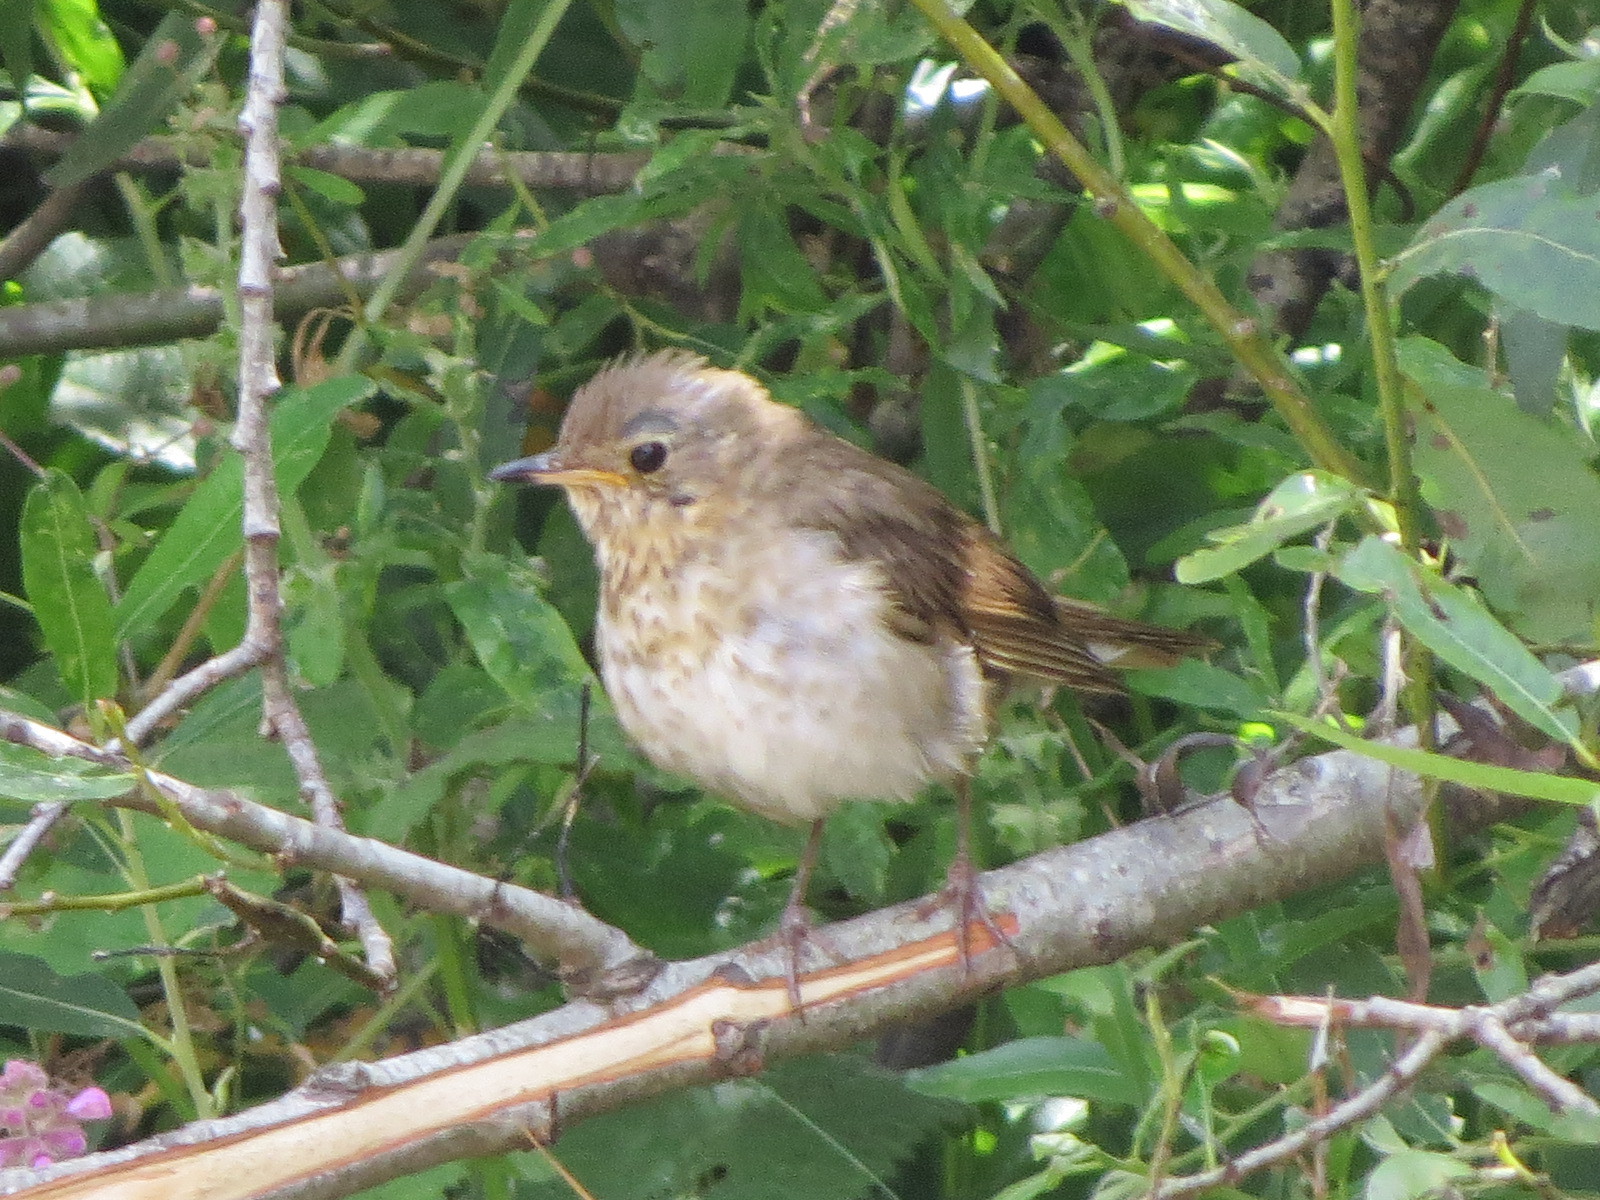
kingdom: Animalia
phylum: Chordata
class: Aves
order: Passeriformes
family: Turdidae
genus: Catharus
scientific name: Catharus ustulatus
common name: Swainson's thrush
